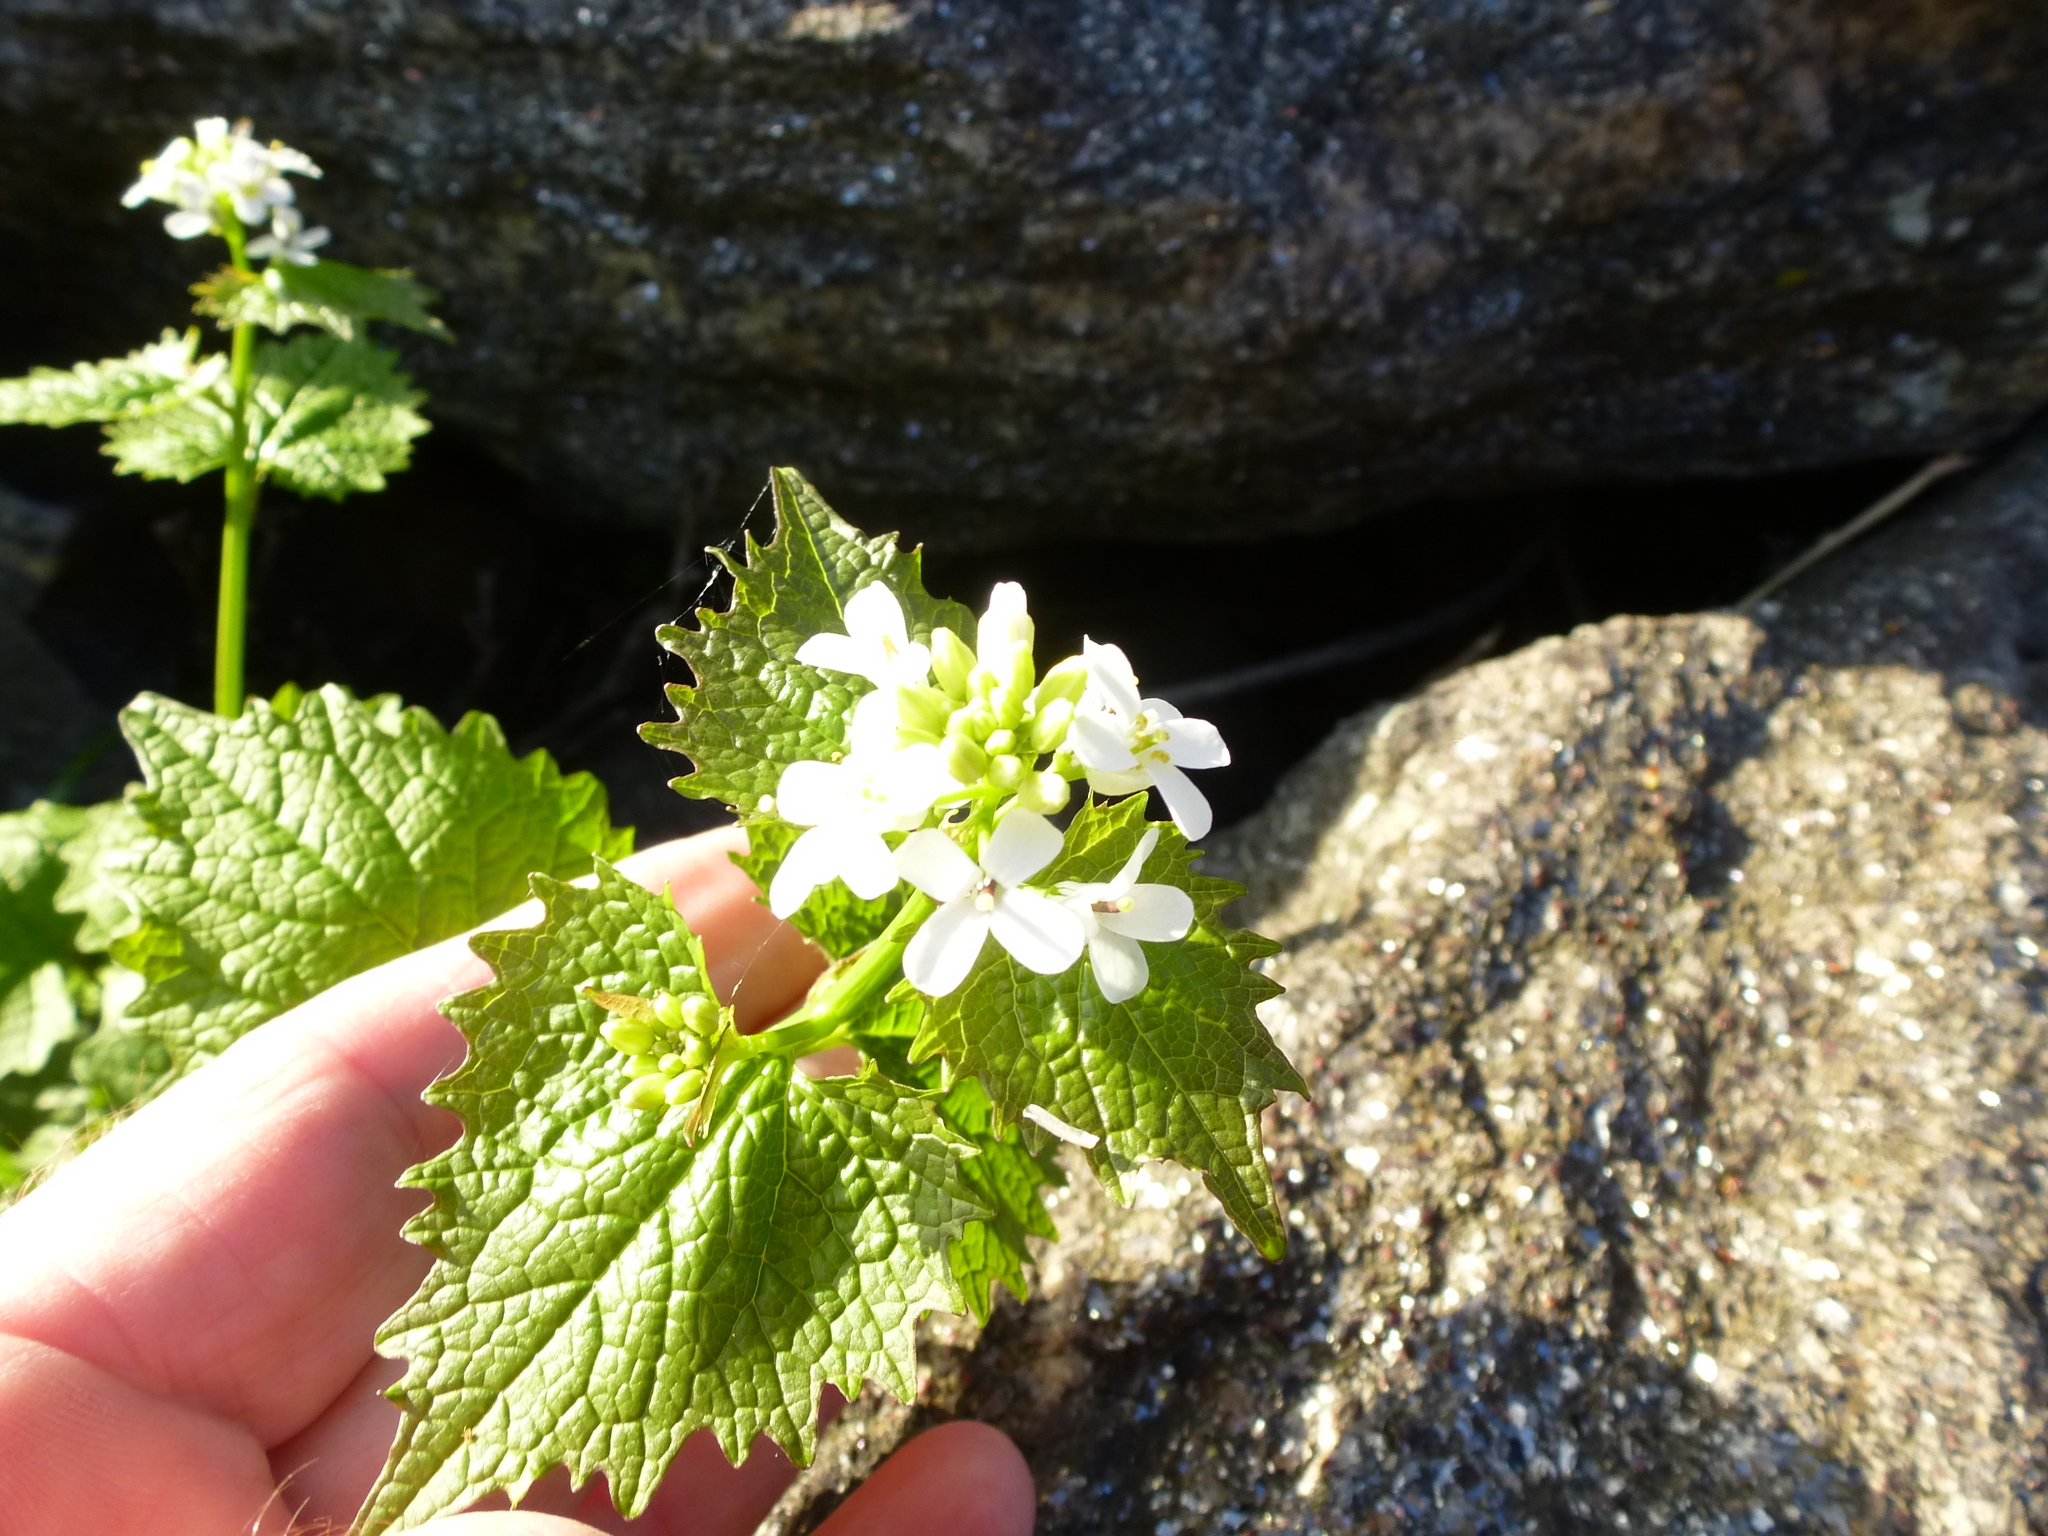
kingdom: Plantae
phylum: Tracheophyta
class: Magnoliopsida
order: Brassicales
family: Brassicaceae
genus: Alliaria
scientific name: Alliaria petiolata
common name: Garlic mustard
